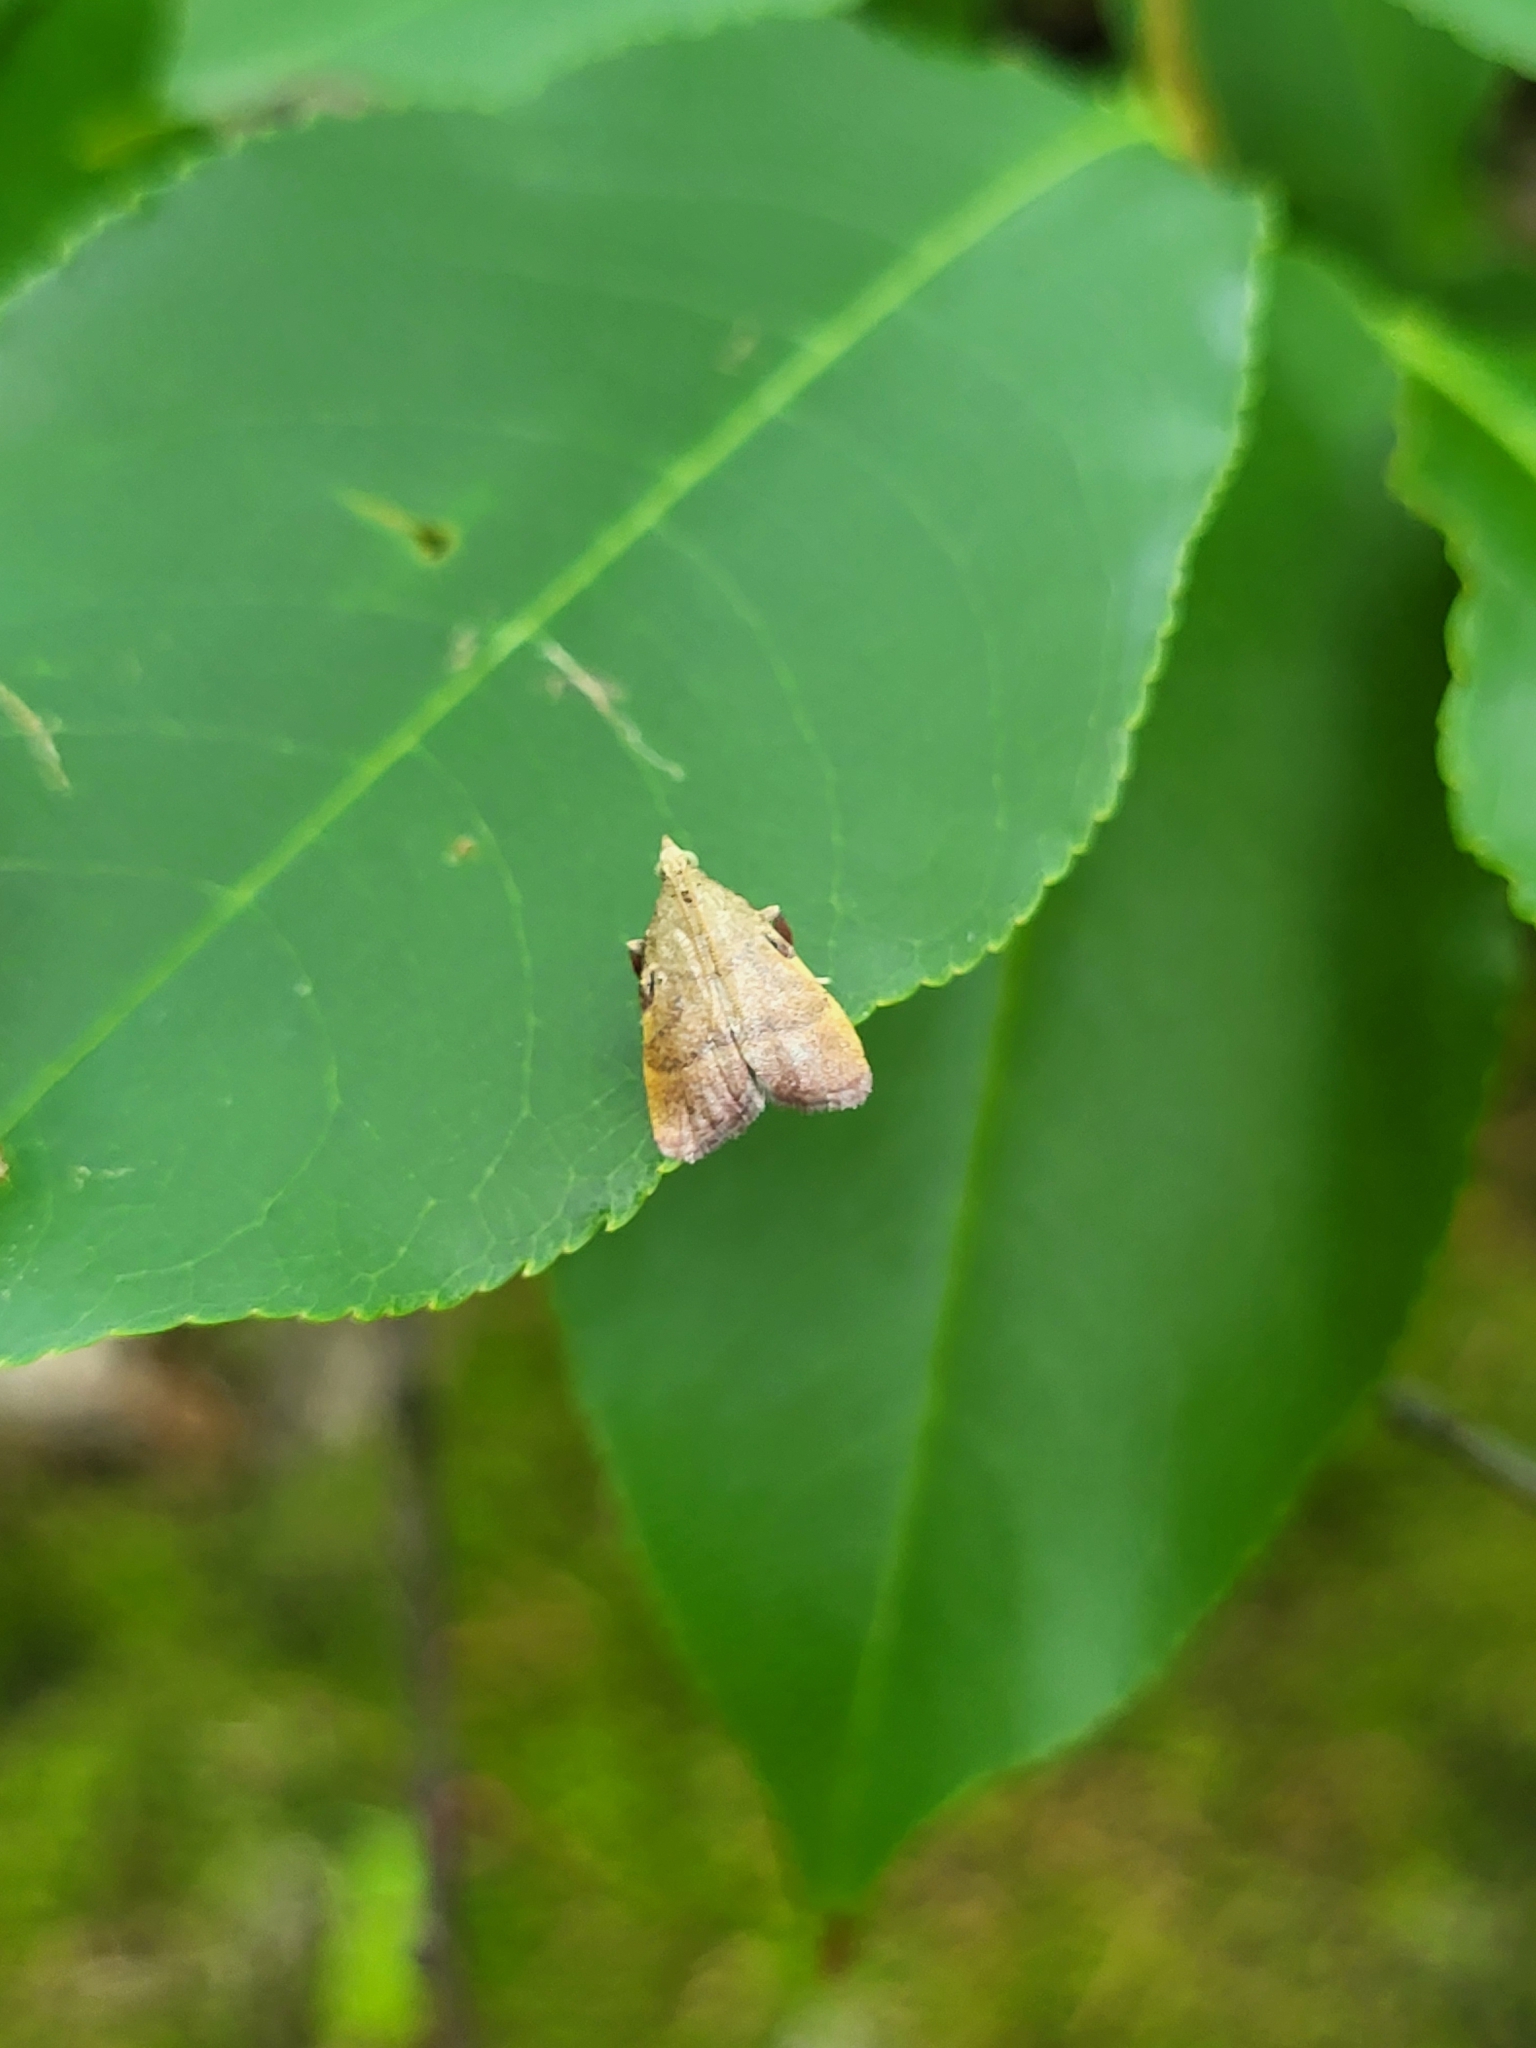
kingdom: Animalia
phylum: Arthropoda
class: Insecta
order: Lepidoptera
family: Pyralidae
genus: Condylolomia
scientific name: Condylolomia participialis
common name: Drab condylolomia moth
